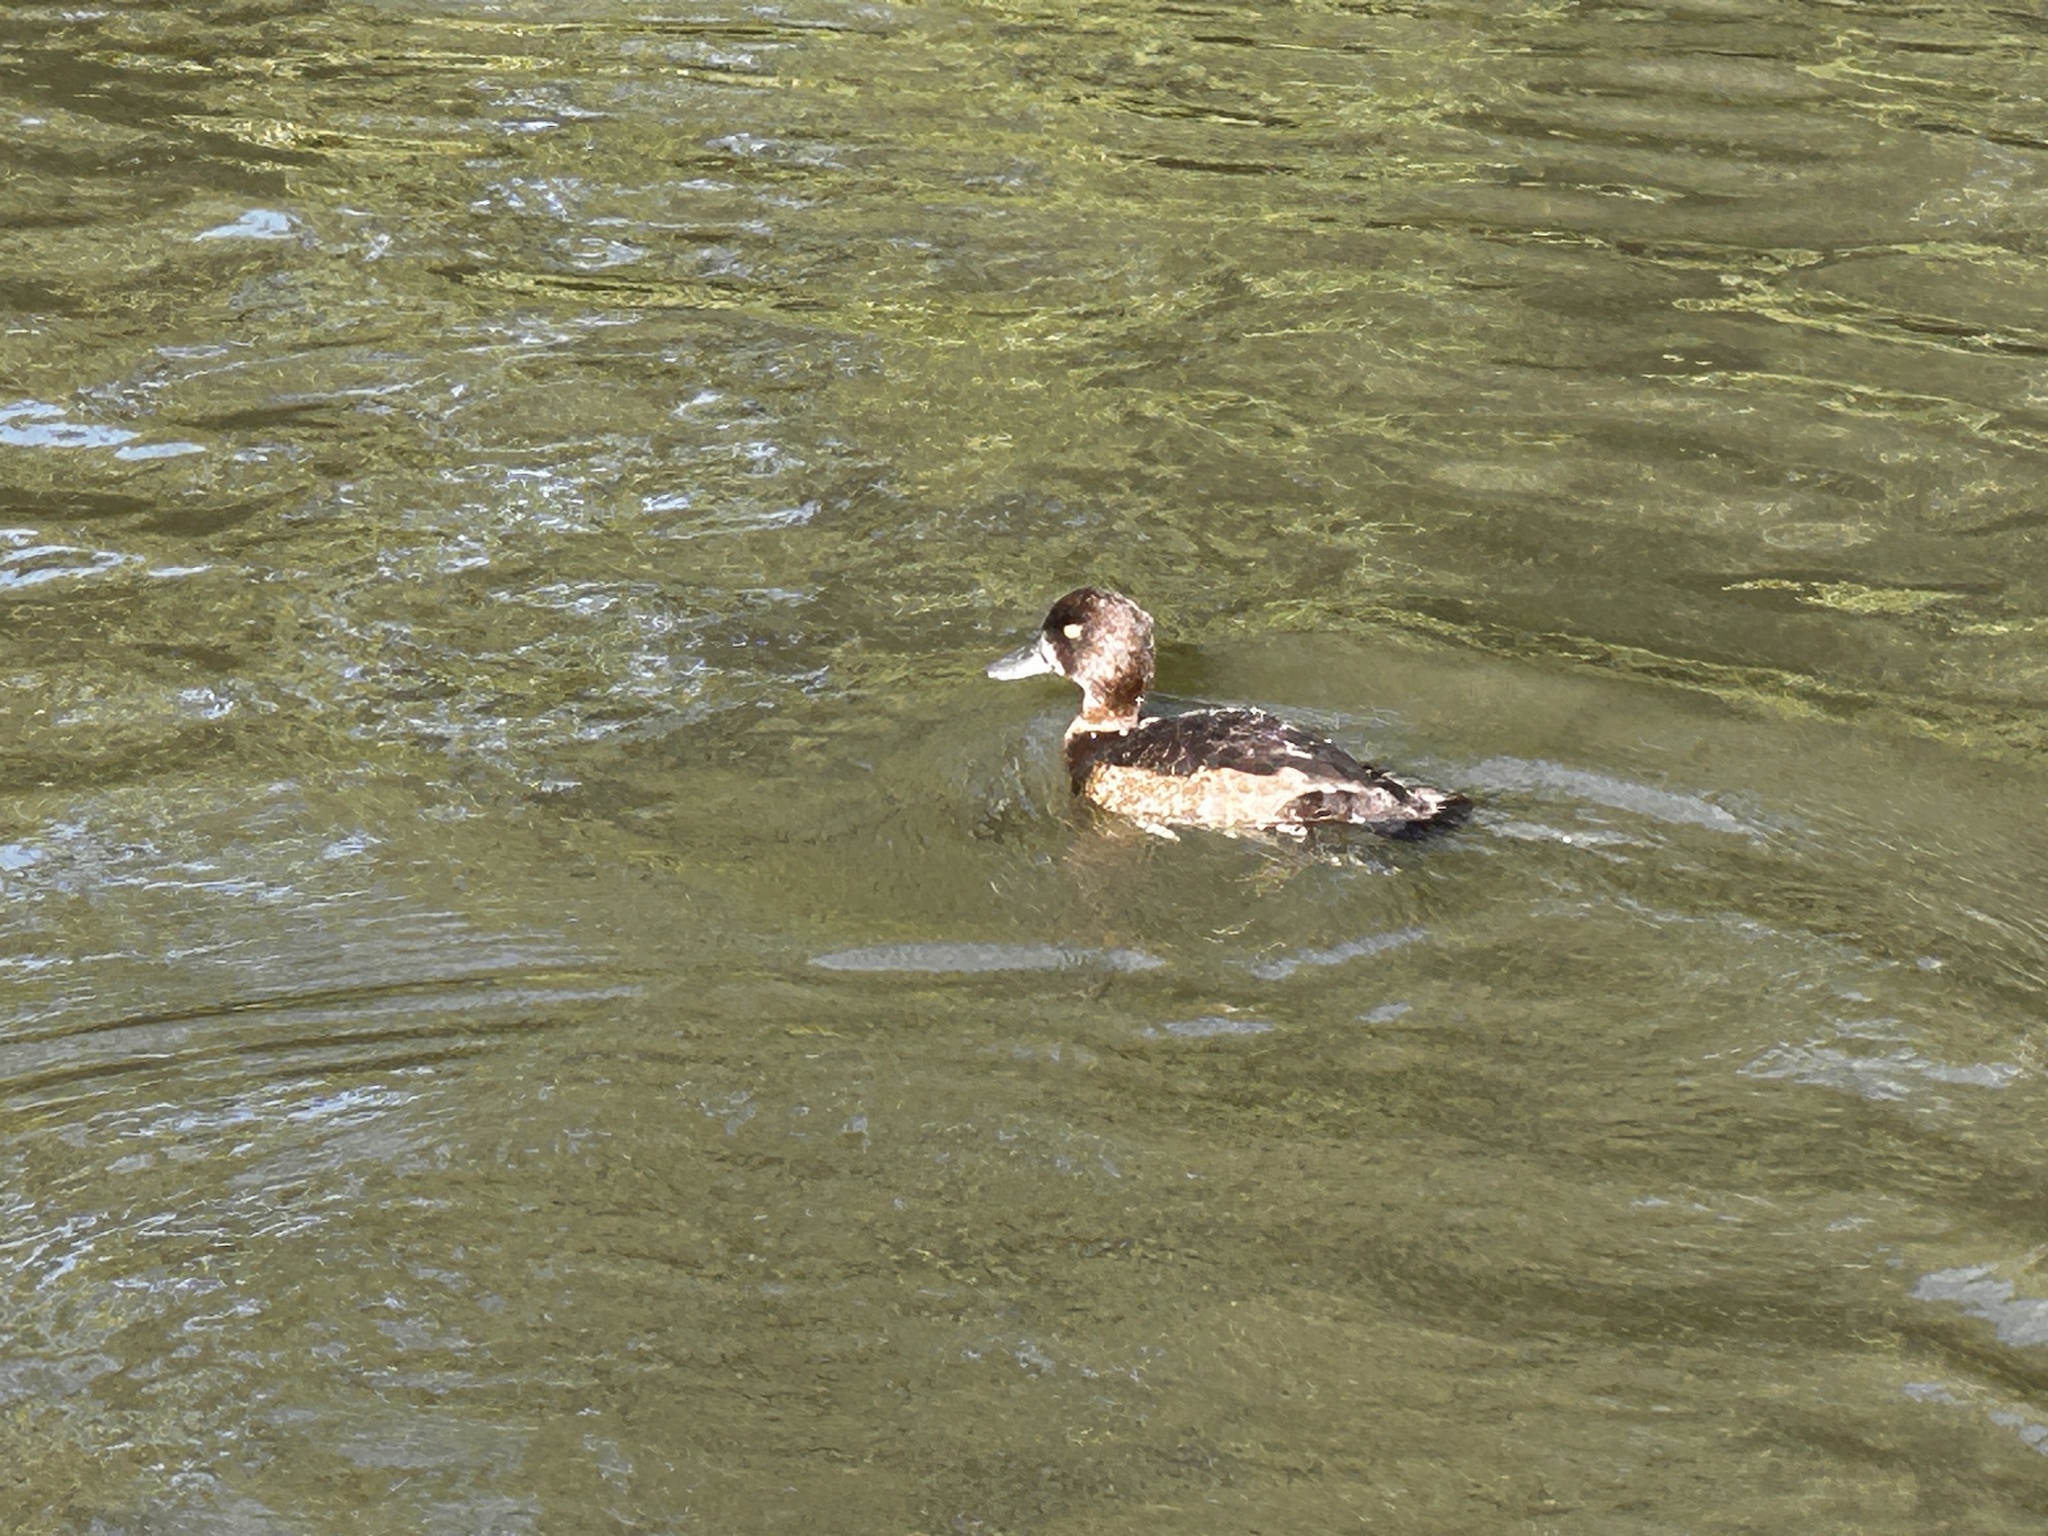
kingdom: Animalia
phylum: Chordata
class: Aves
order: Anseriformes
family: Anatidae
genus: Aythya
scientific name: Aythya fuligula
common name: Tufted duck
